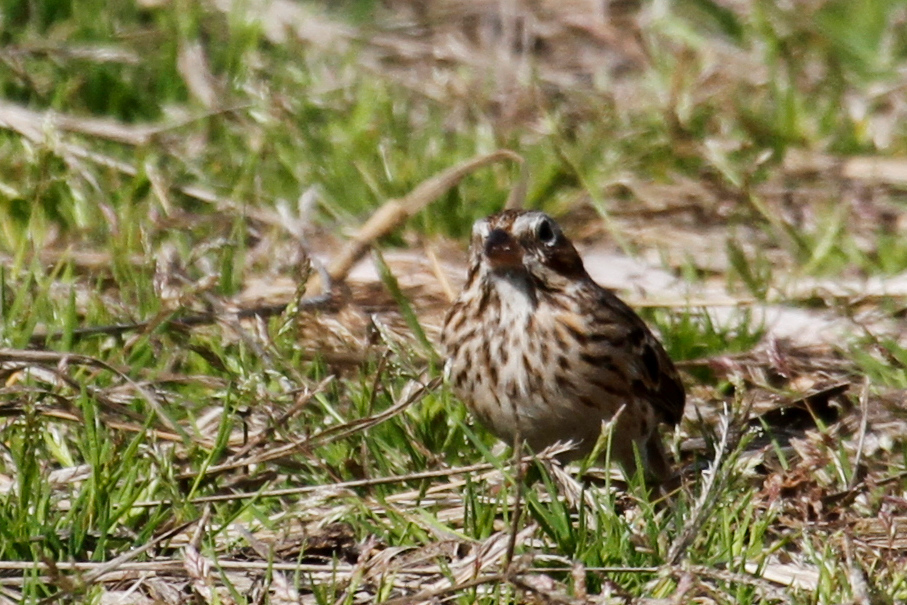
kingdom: Animalia
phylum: Chordata
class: Aves
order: Passeriformes
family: Passerellidae
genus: Pooecetes
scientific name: Pooecetes gramineus
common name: Vesper sparrow
